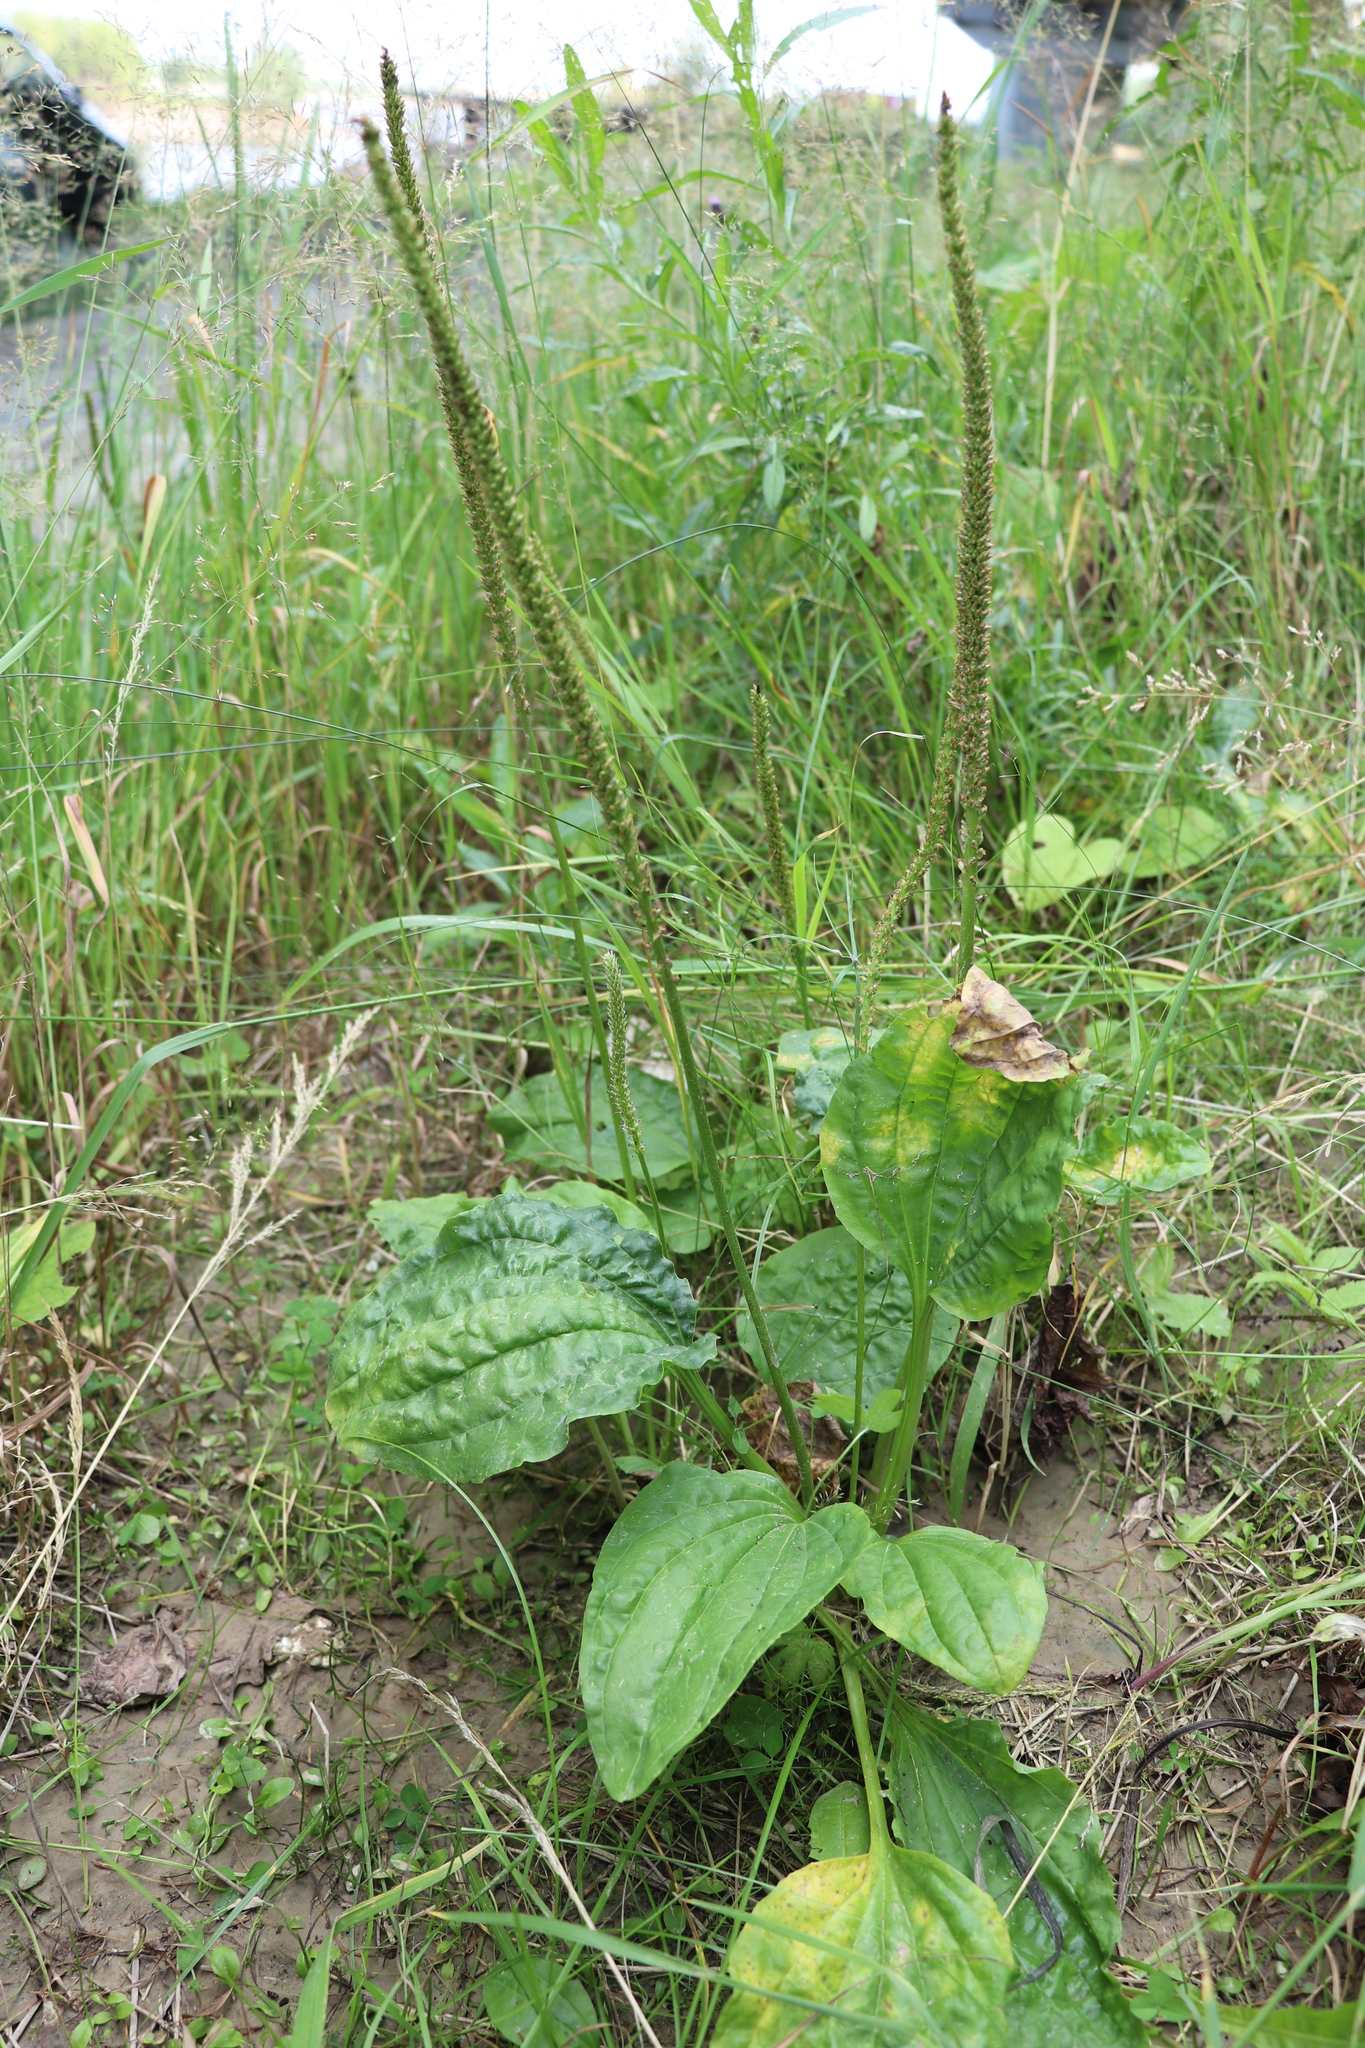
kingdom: Plantae
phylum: Tracheophyta
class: Magnoliopsida
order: Lamiales
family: Plantaginaceae
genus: Plantago
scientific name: Plantago major
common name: Common plantain
